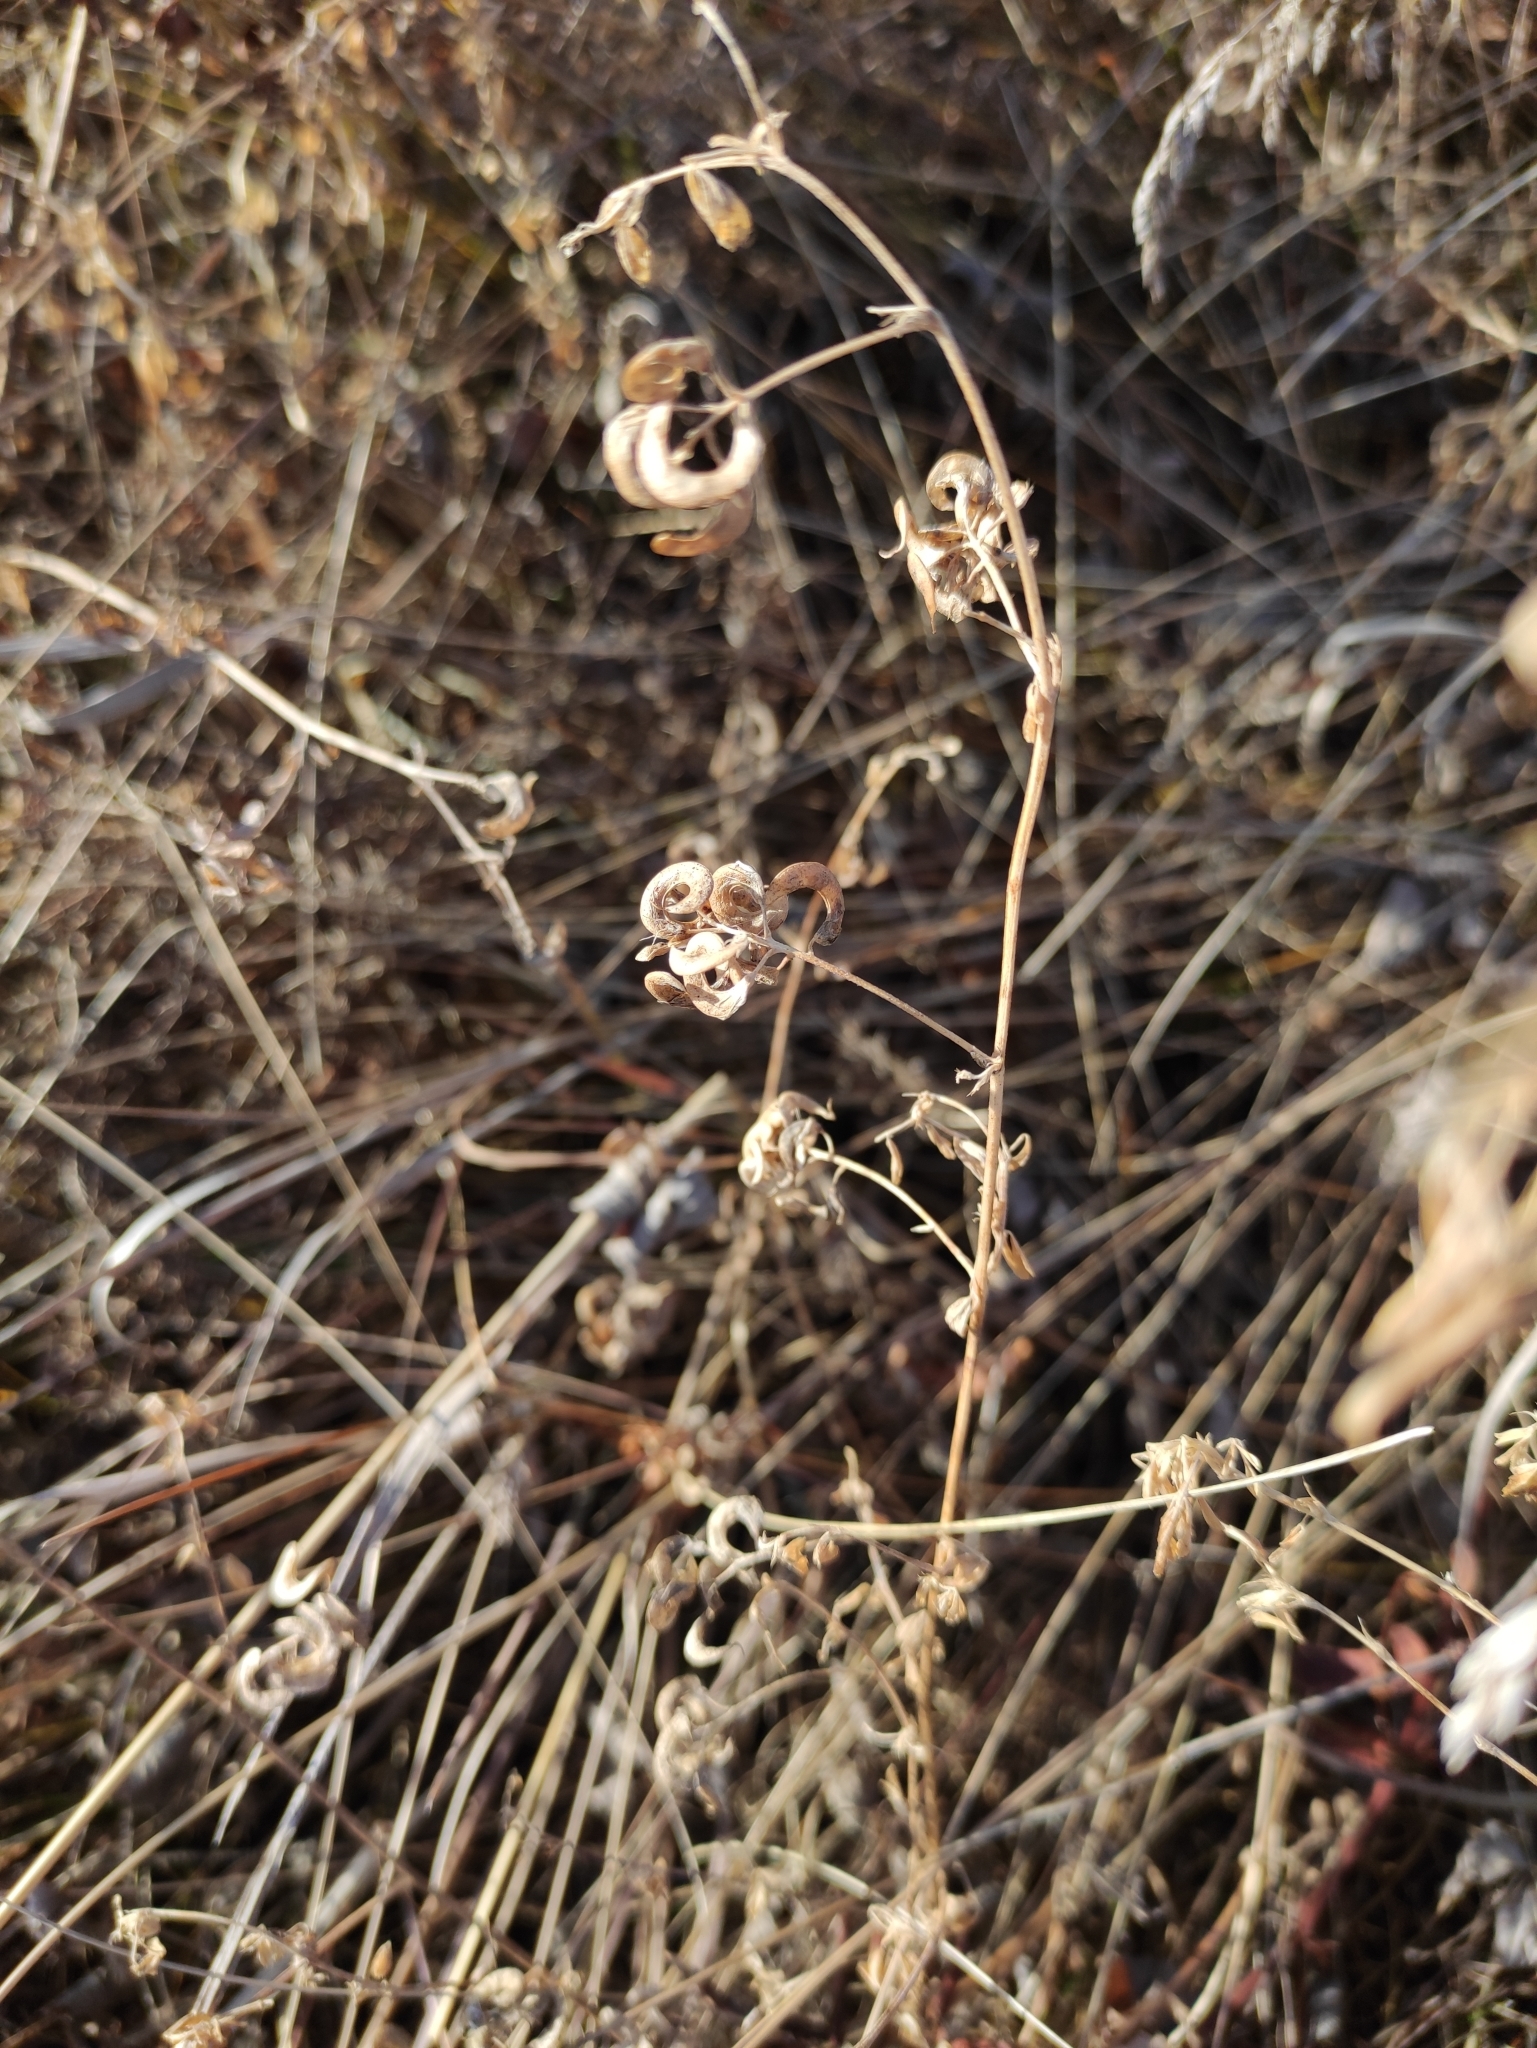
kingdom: Plantae
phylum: Tracheophyta
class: Magnoliopsida
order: Fabales
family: Fabaceae
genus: Medicago
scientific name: Medicago falcata
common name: Sickle medick
